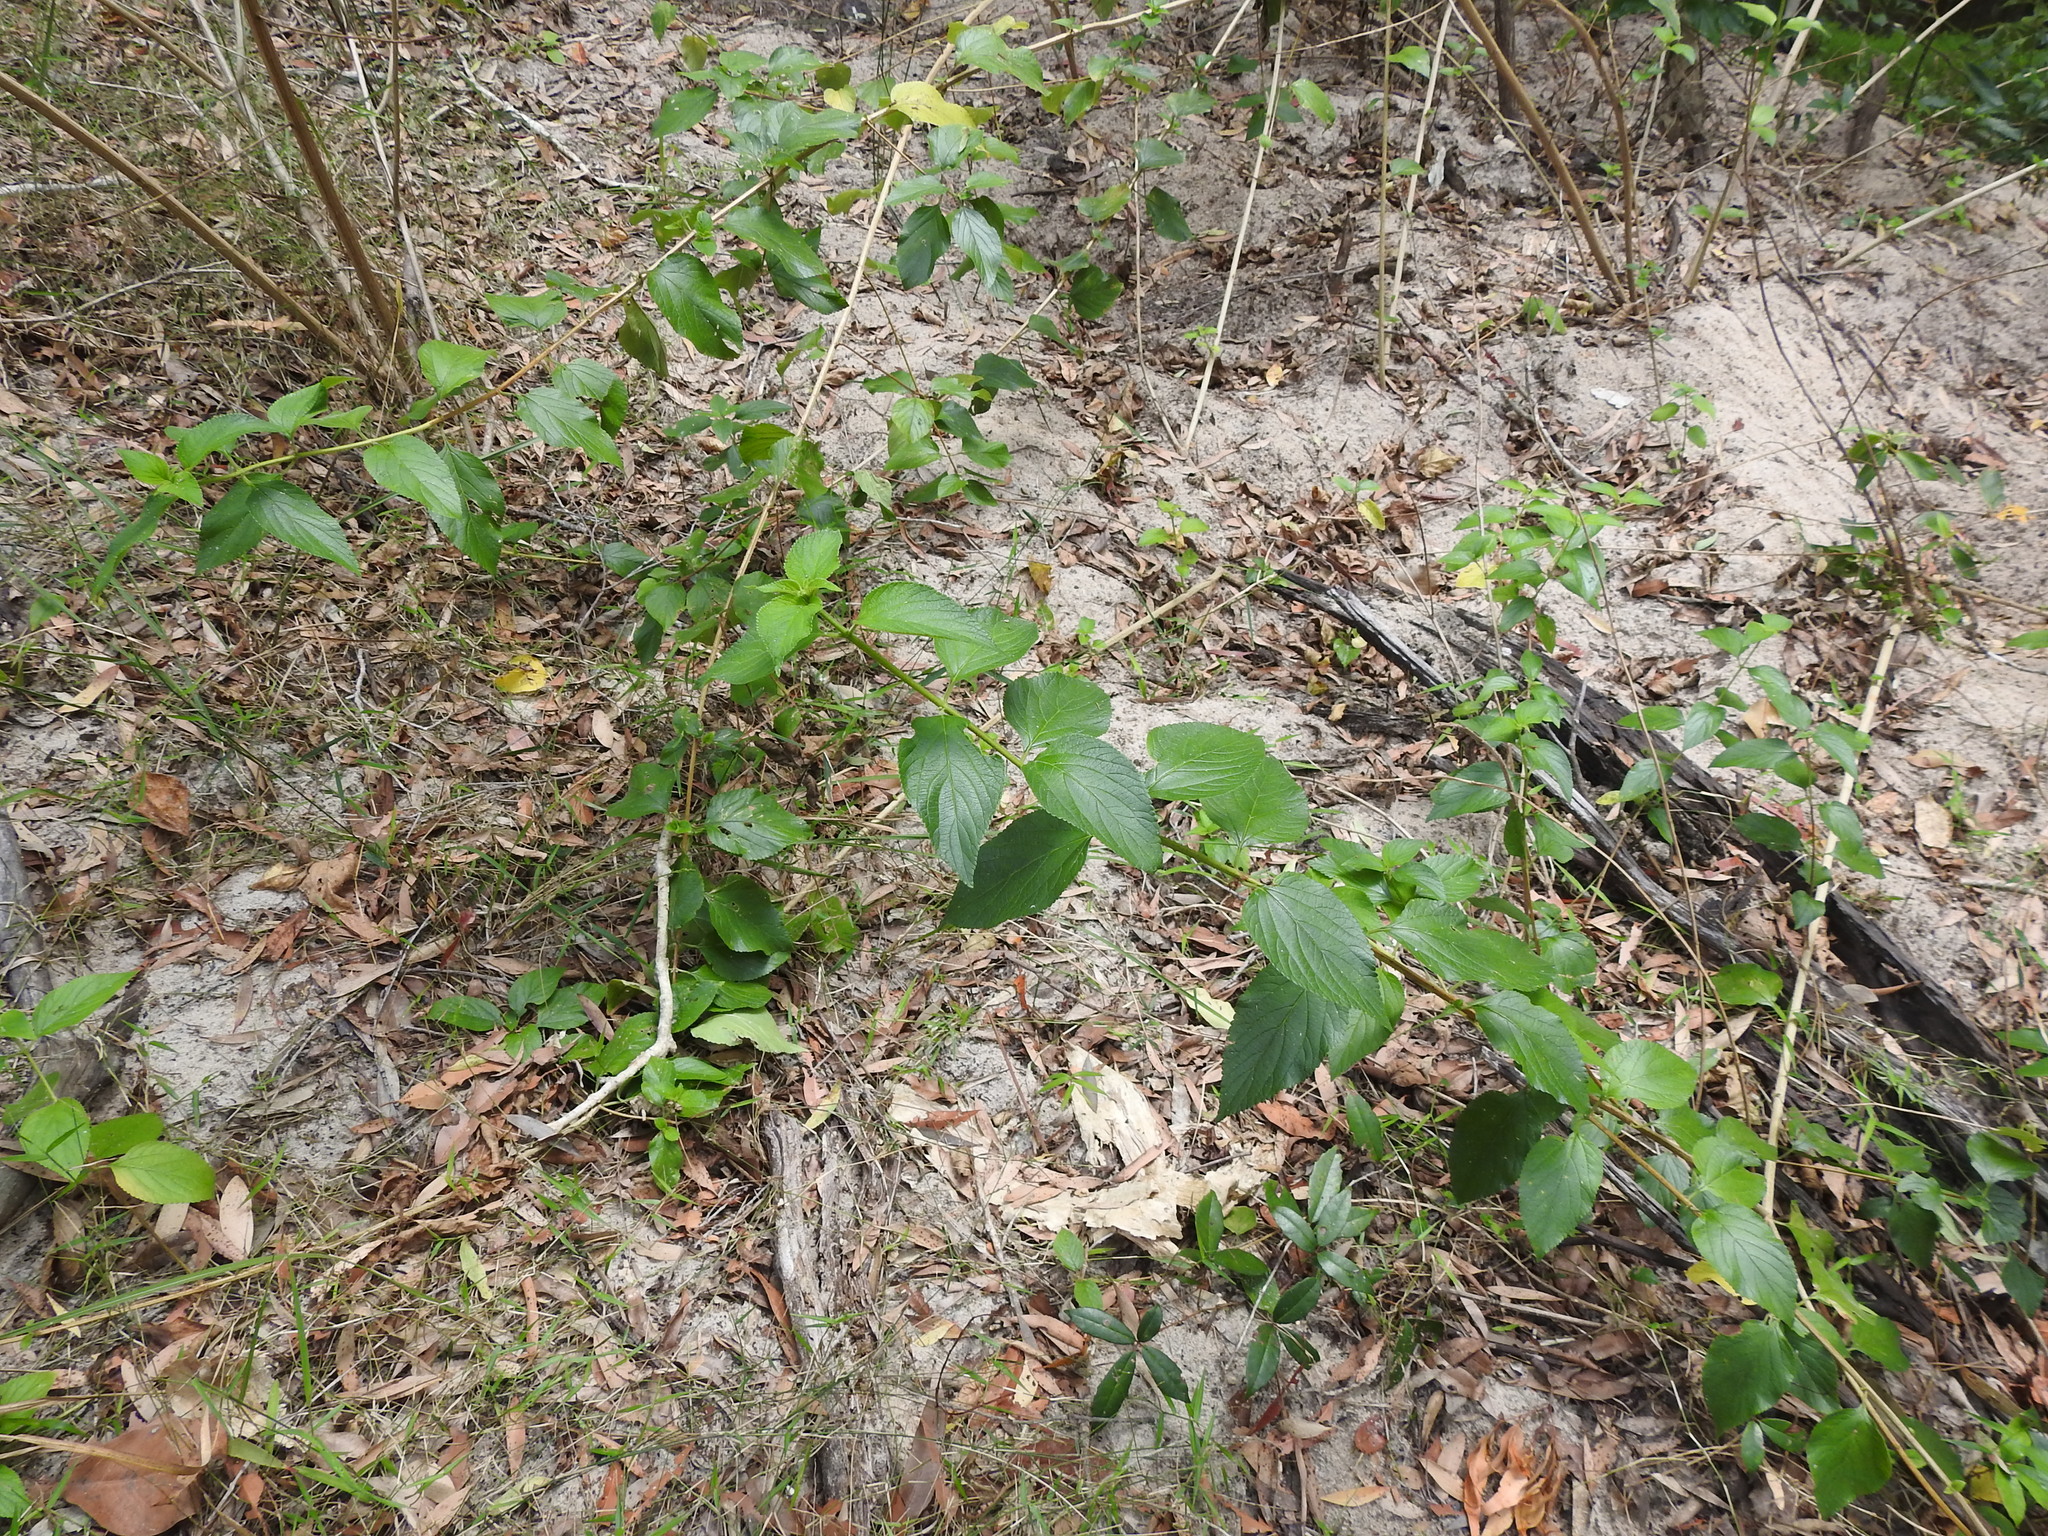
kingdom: Plantae
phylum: Tracheophyta
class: Magnoliopsida
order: Lamiales
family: Verbenaceae
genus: Lantana
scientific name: Lantana camara
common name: Lantana
